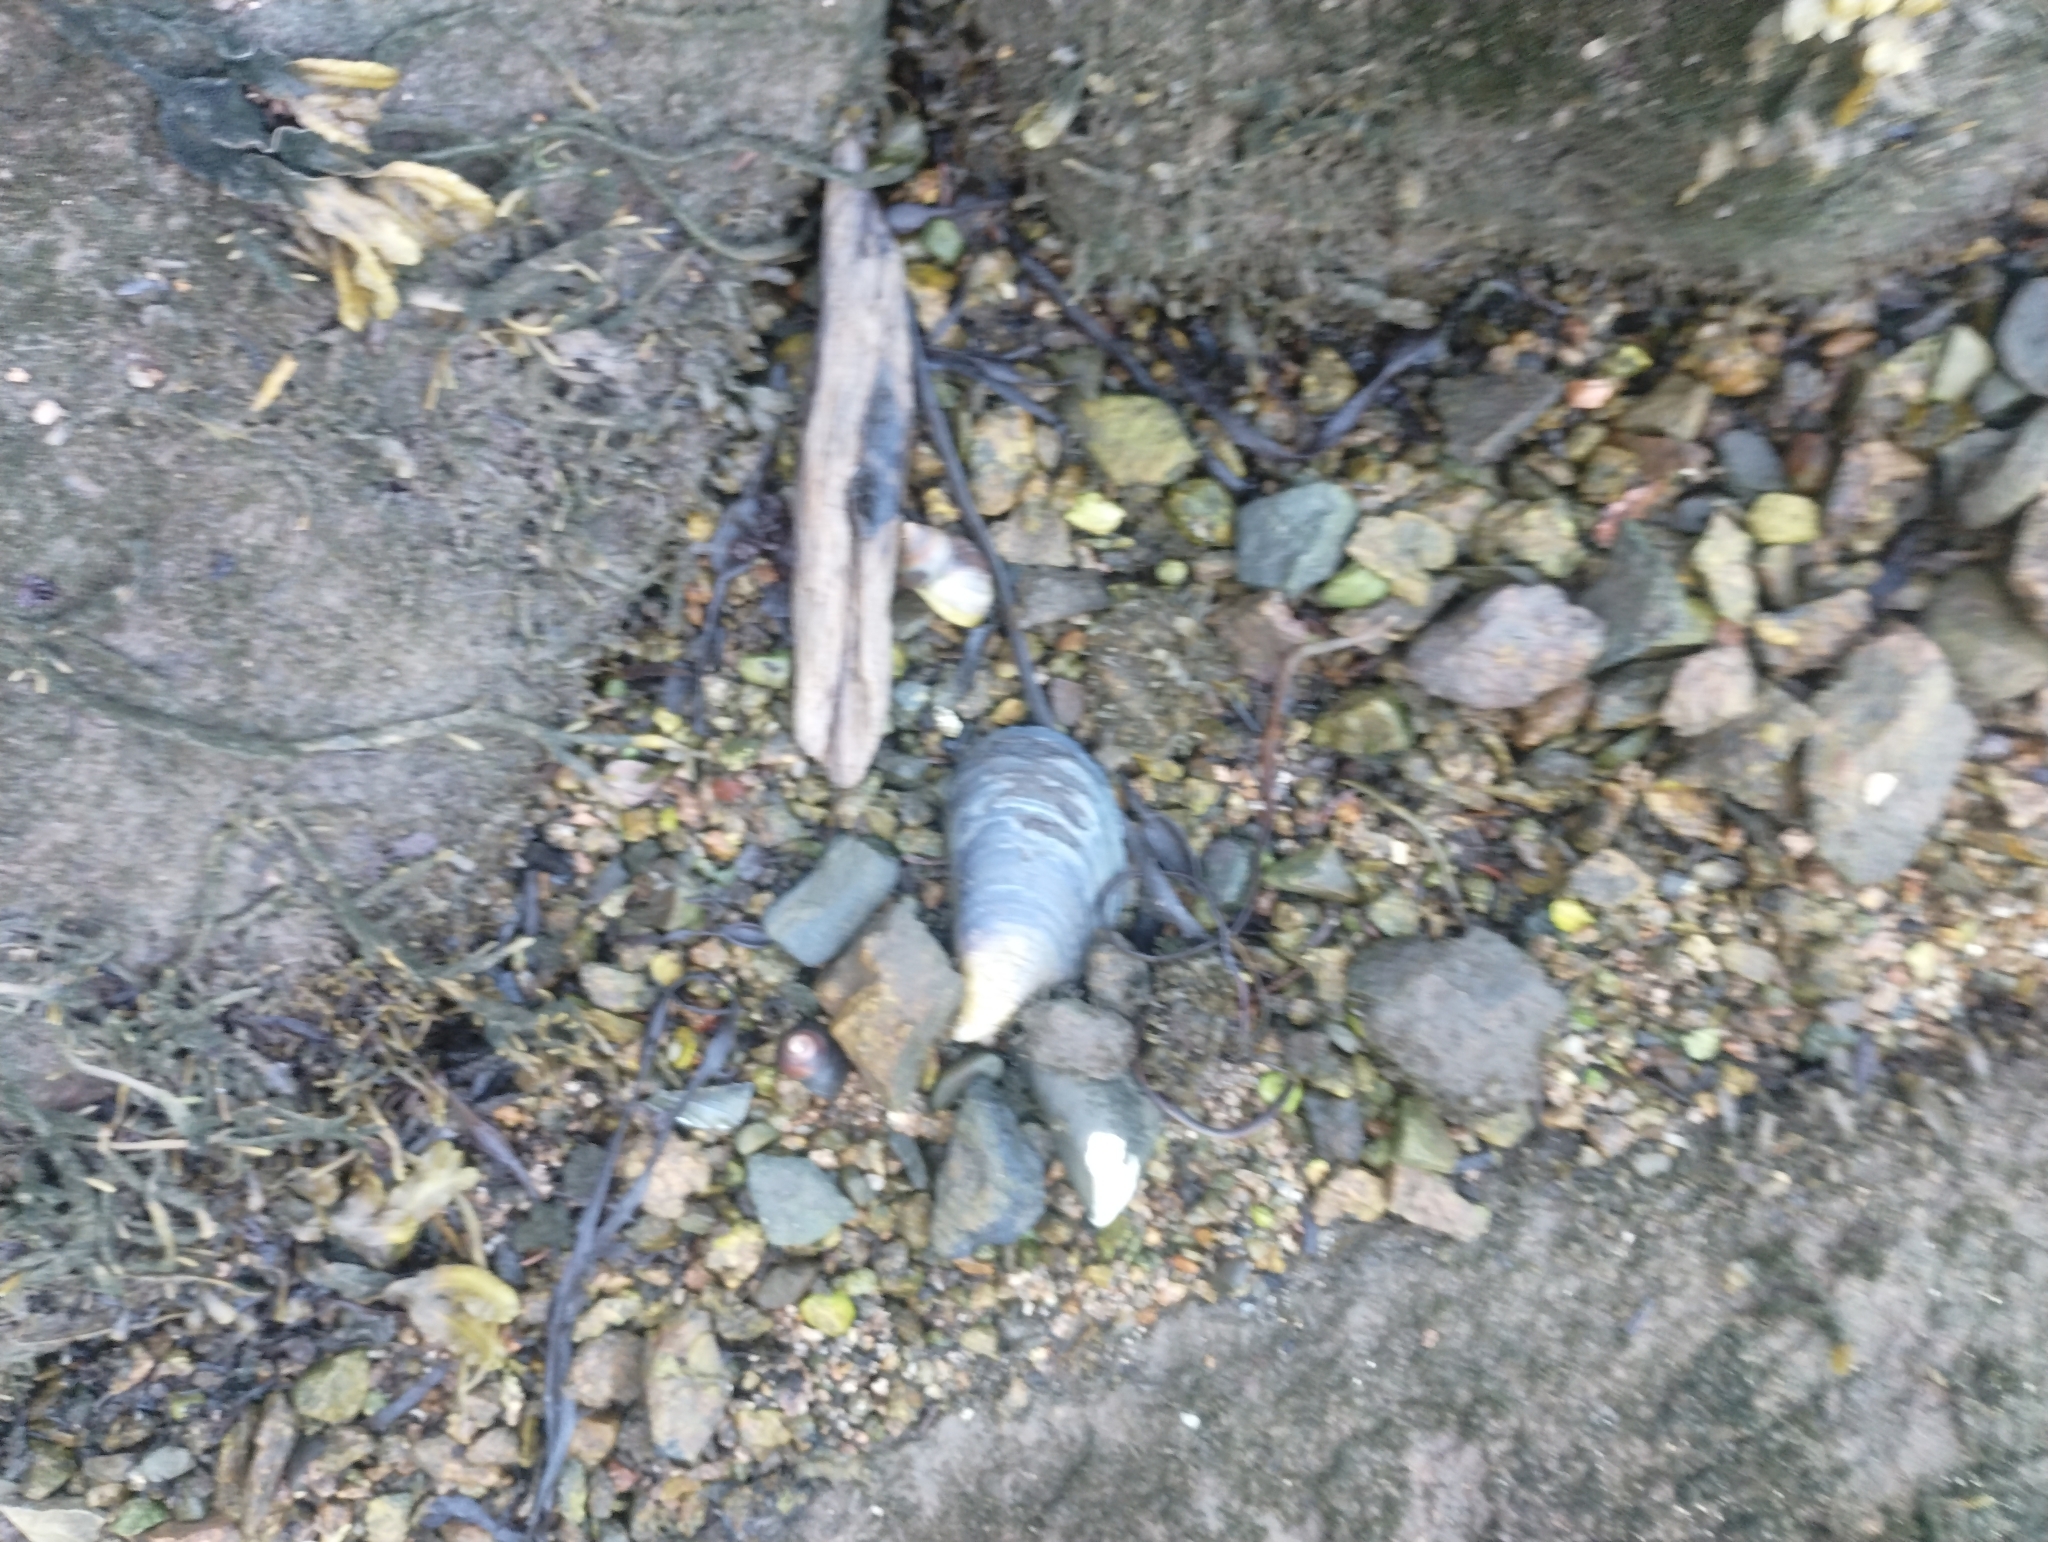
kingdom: Animalia
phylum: Mollusca
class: Bivalvia
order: Mytilida
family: Mytilidae
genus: Mytilus
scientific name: Mytilus
